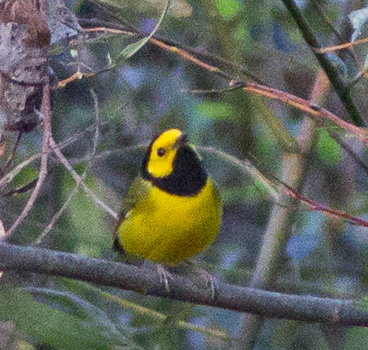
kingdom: Animalia
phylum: Chordata
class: Aves
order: Passeriformes
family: Parulidae
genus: Setophaga
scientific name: Setophaga citrina
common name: Hooded warbler
